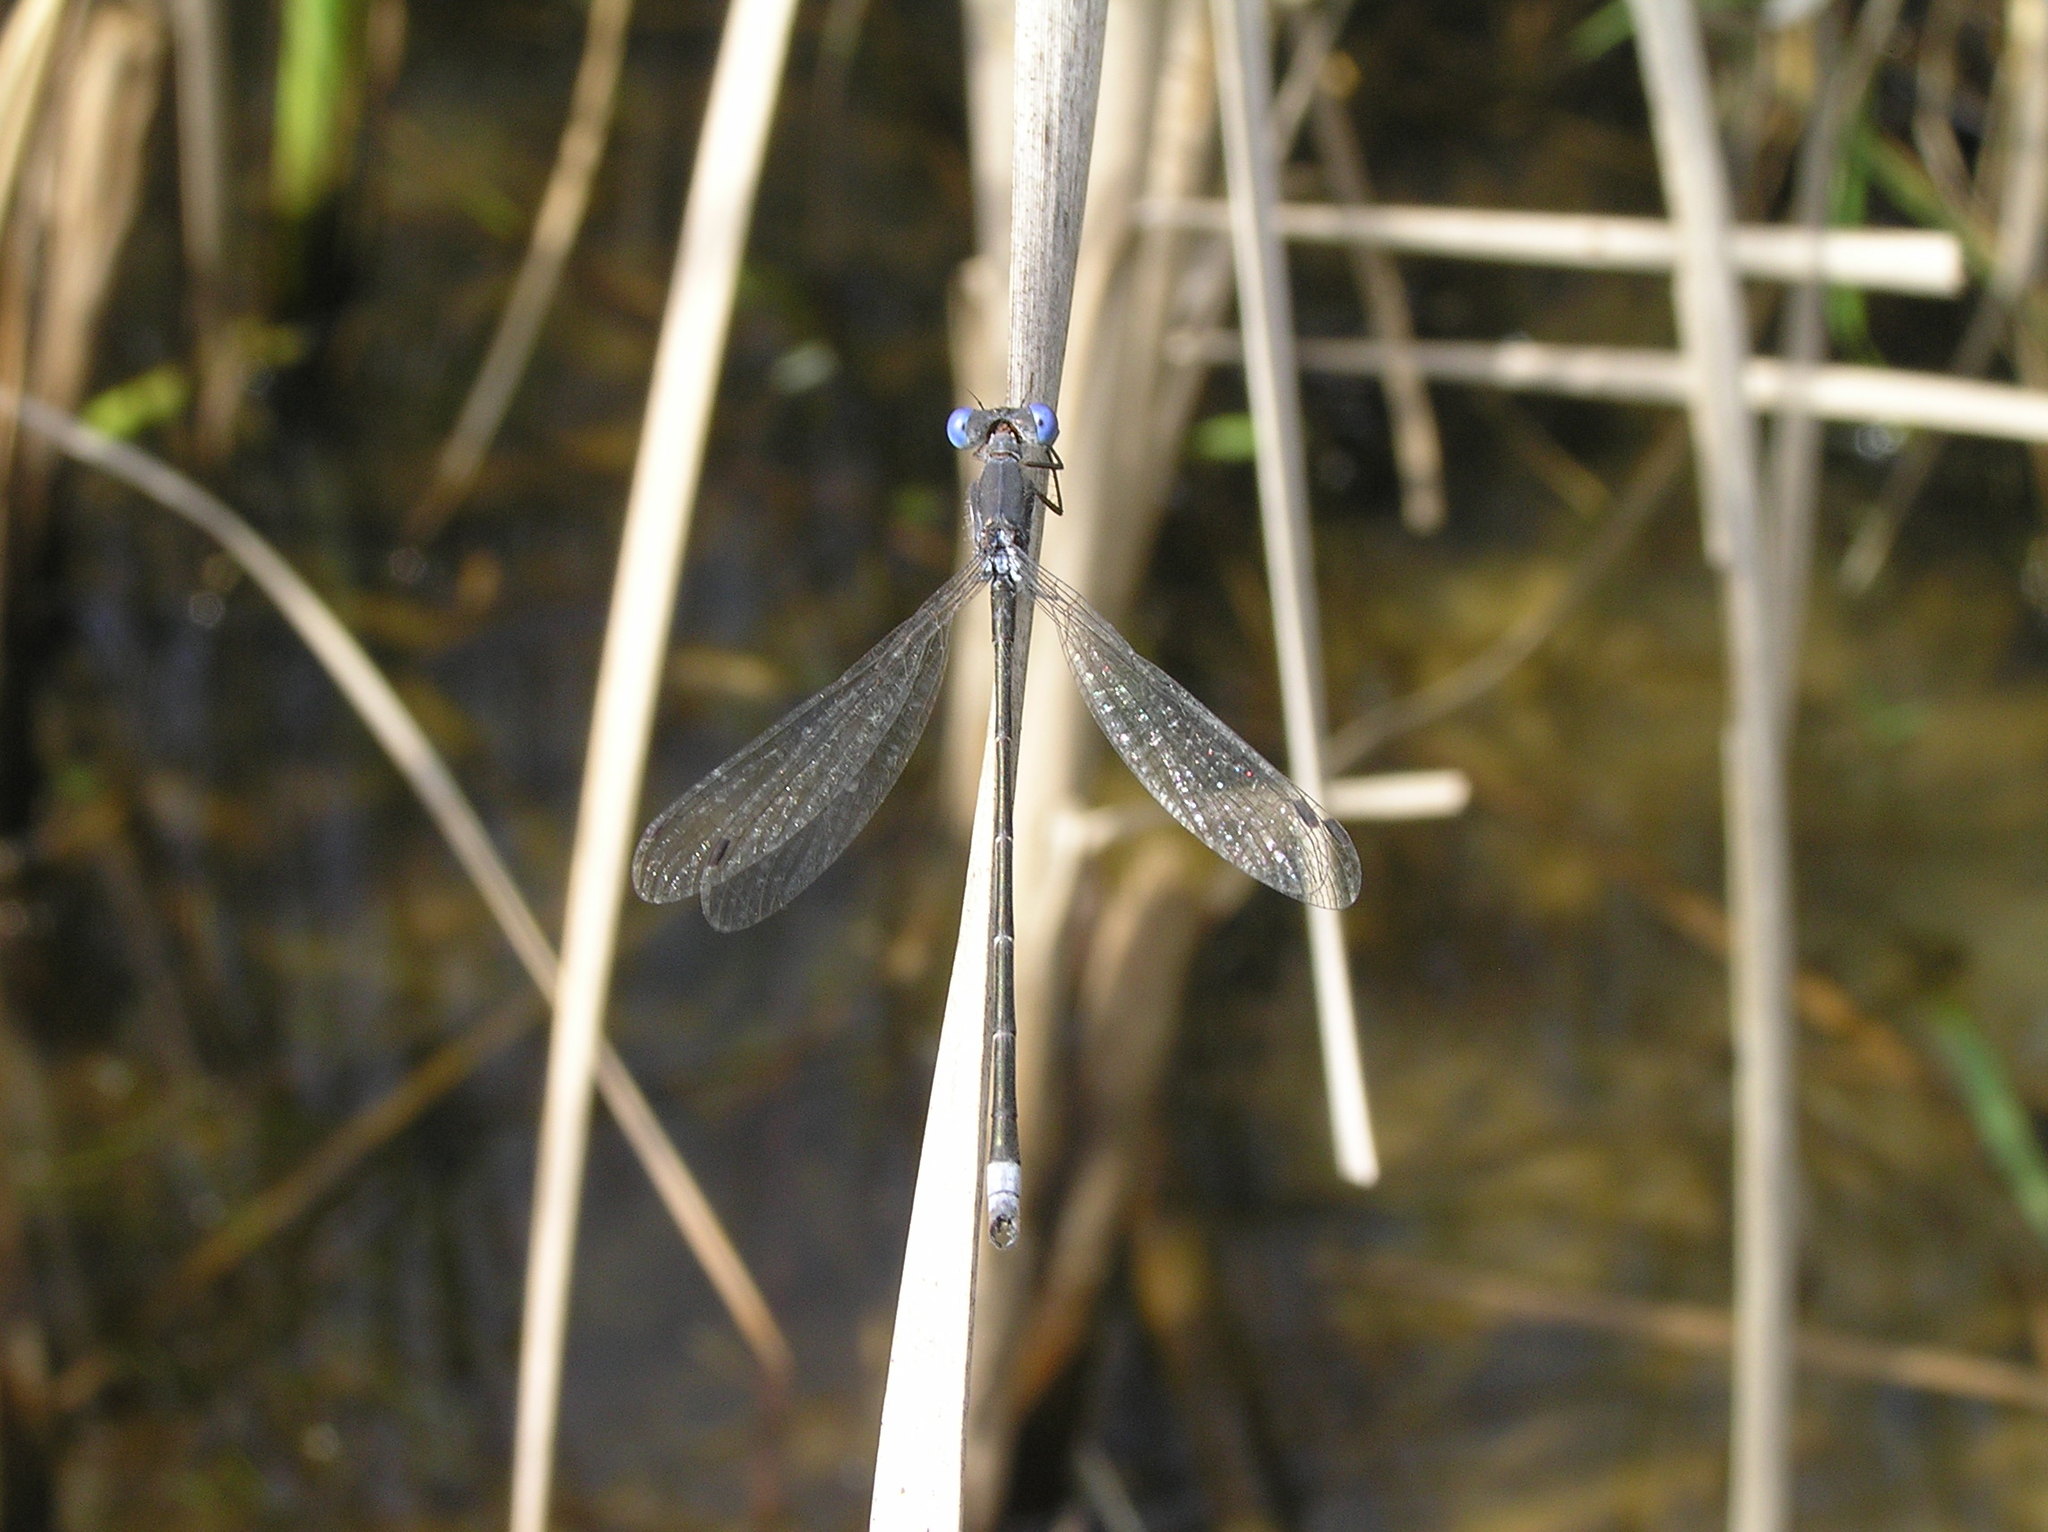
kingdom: Animalia
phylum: Arthropoda
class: Insecta
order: Odonata
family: Lestidae
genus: Lestes
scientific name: Lestes congener
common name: Spotted spreadwing
